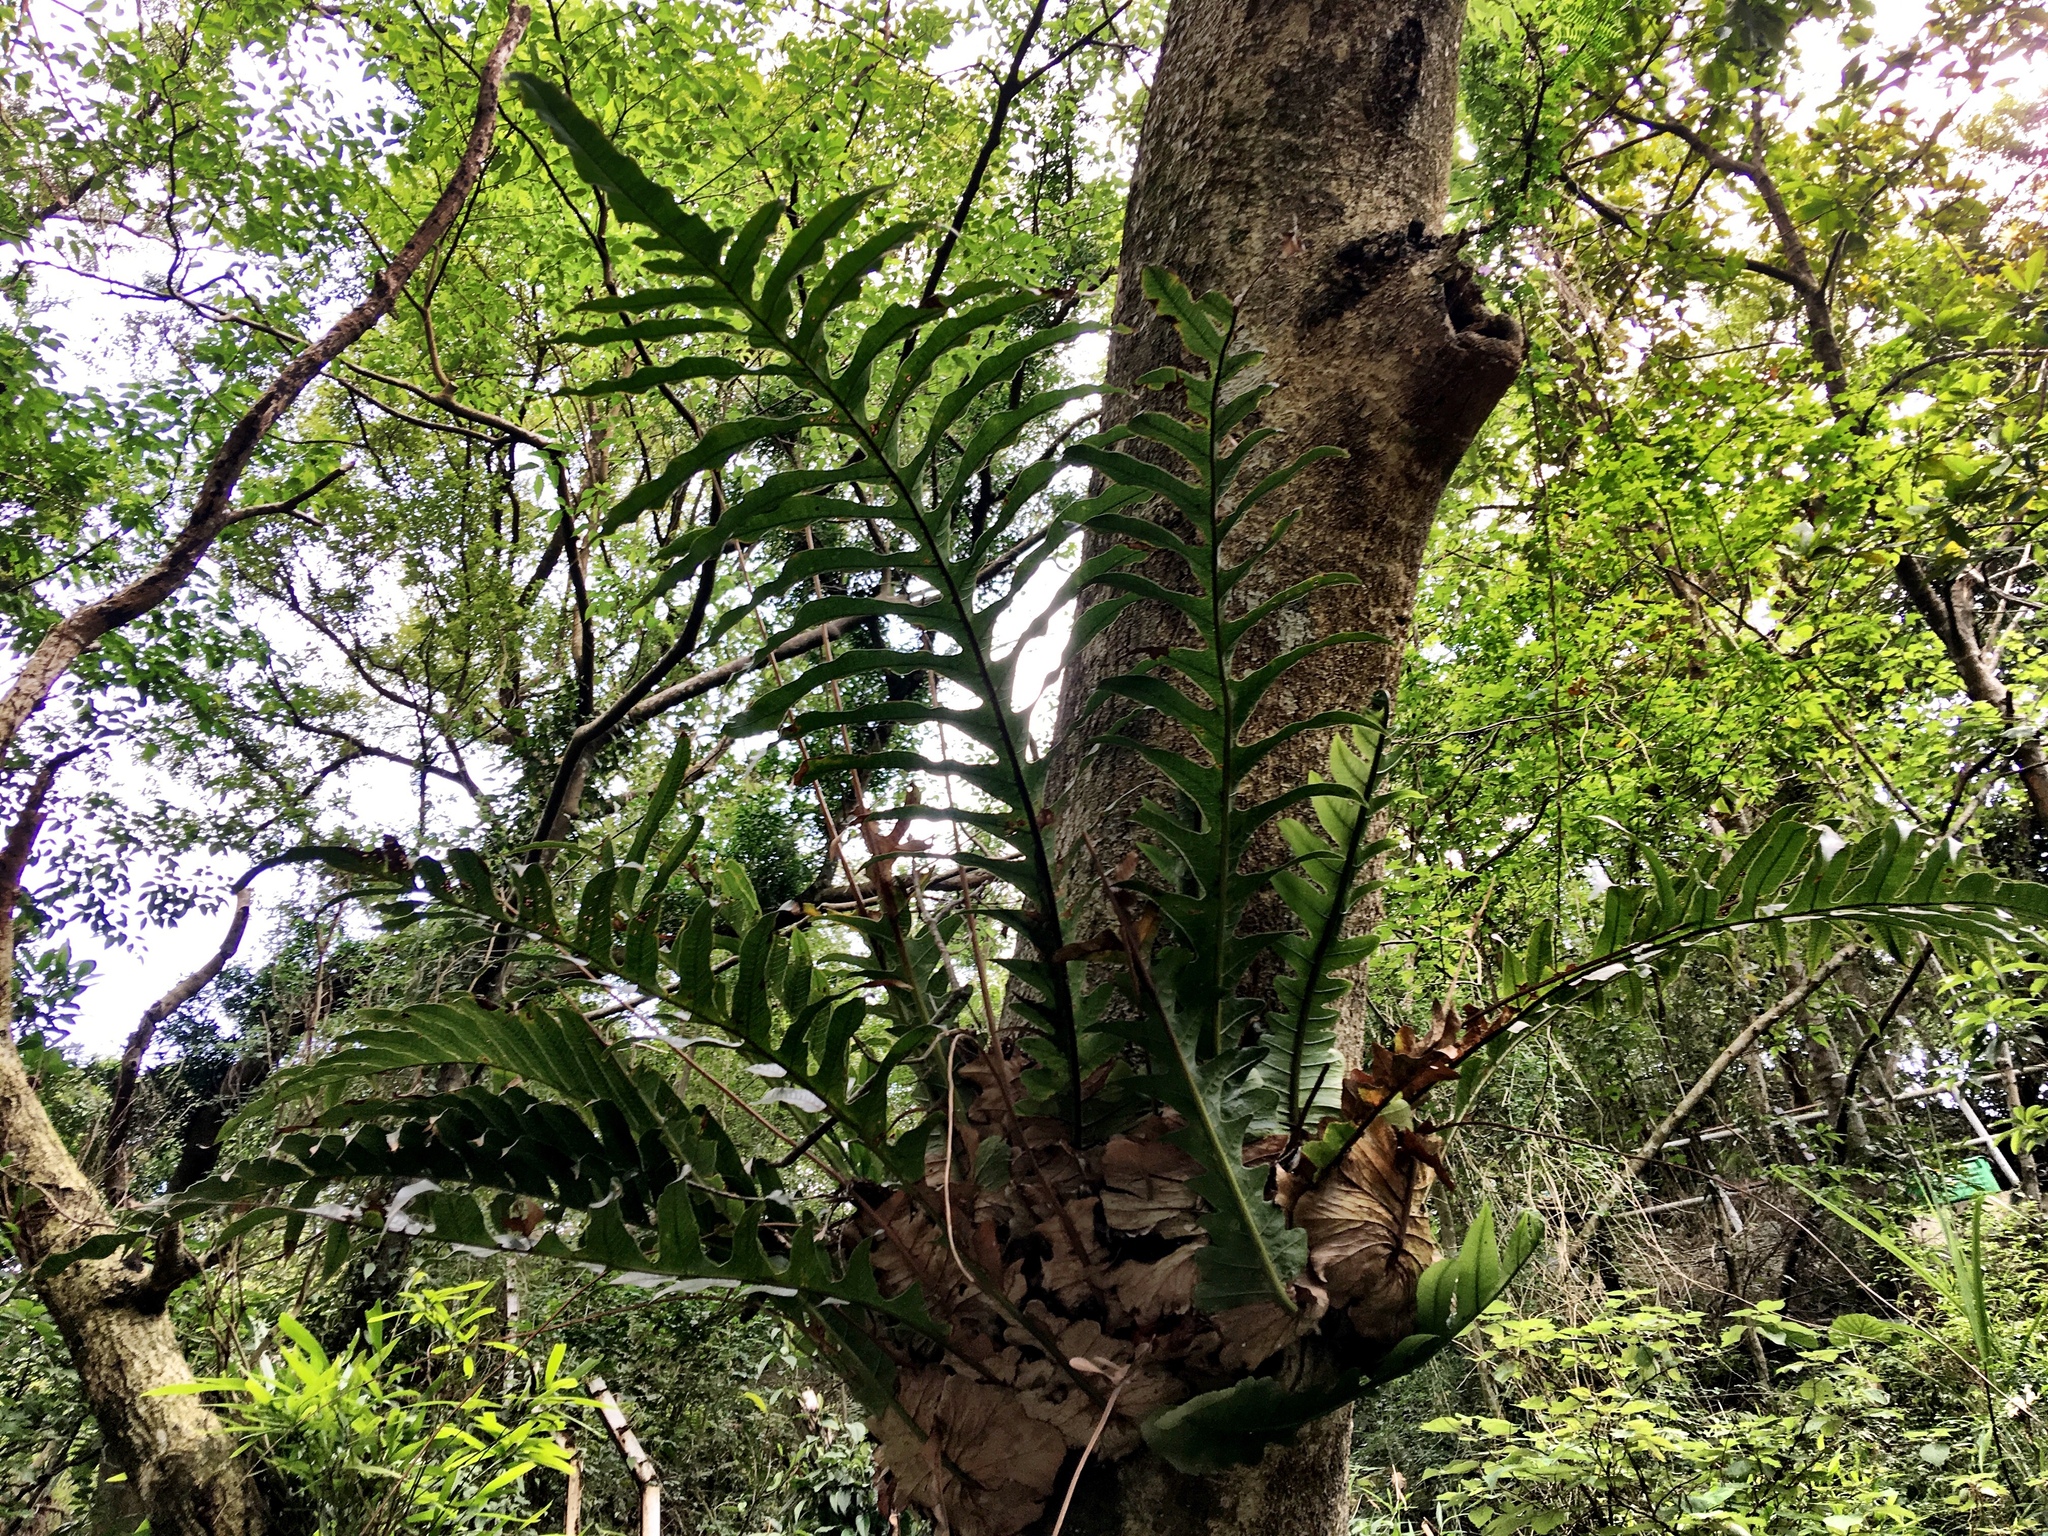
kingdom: Plantae
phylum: Tracheophyta
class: Polypodiopsida
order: Polypodiales
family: Polypodiaceae
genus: Drynaria
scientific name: Drynaria coronans
